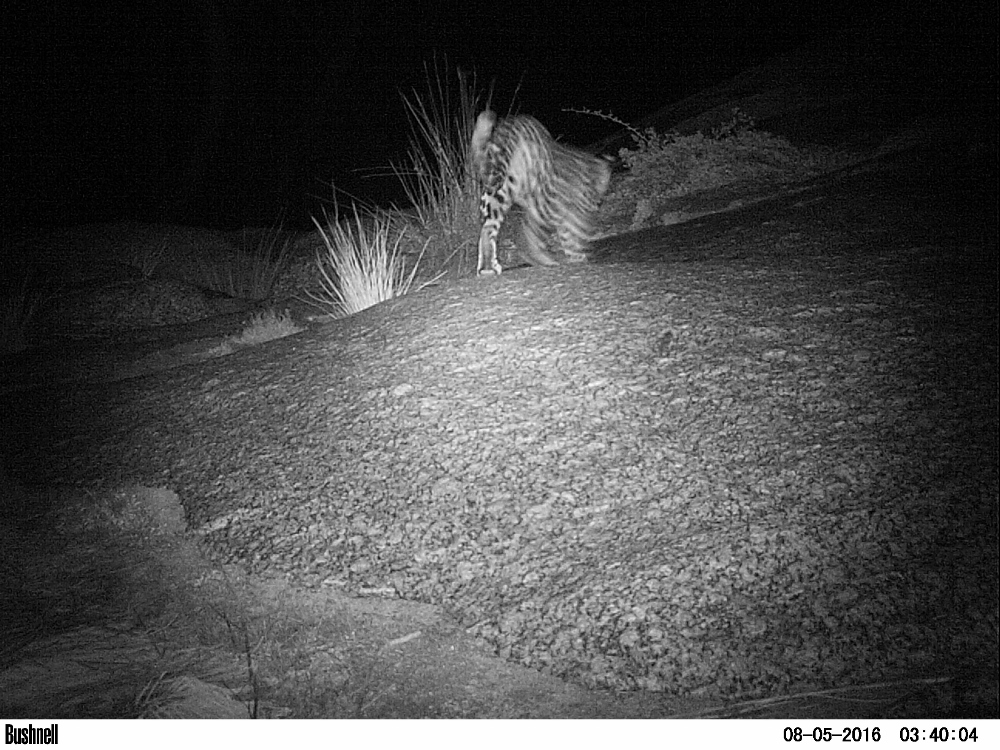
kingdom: Animalia
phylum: Chordata
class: Mammalia
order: Carnivora
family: Felidae
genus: Panthera
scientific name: Panthera pardus
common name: Leopard
